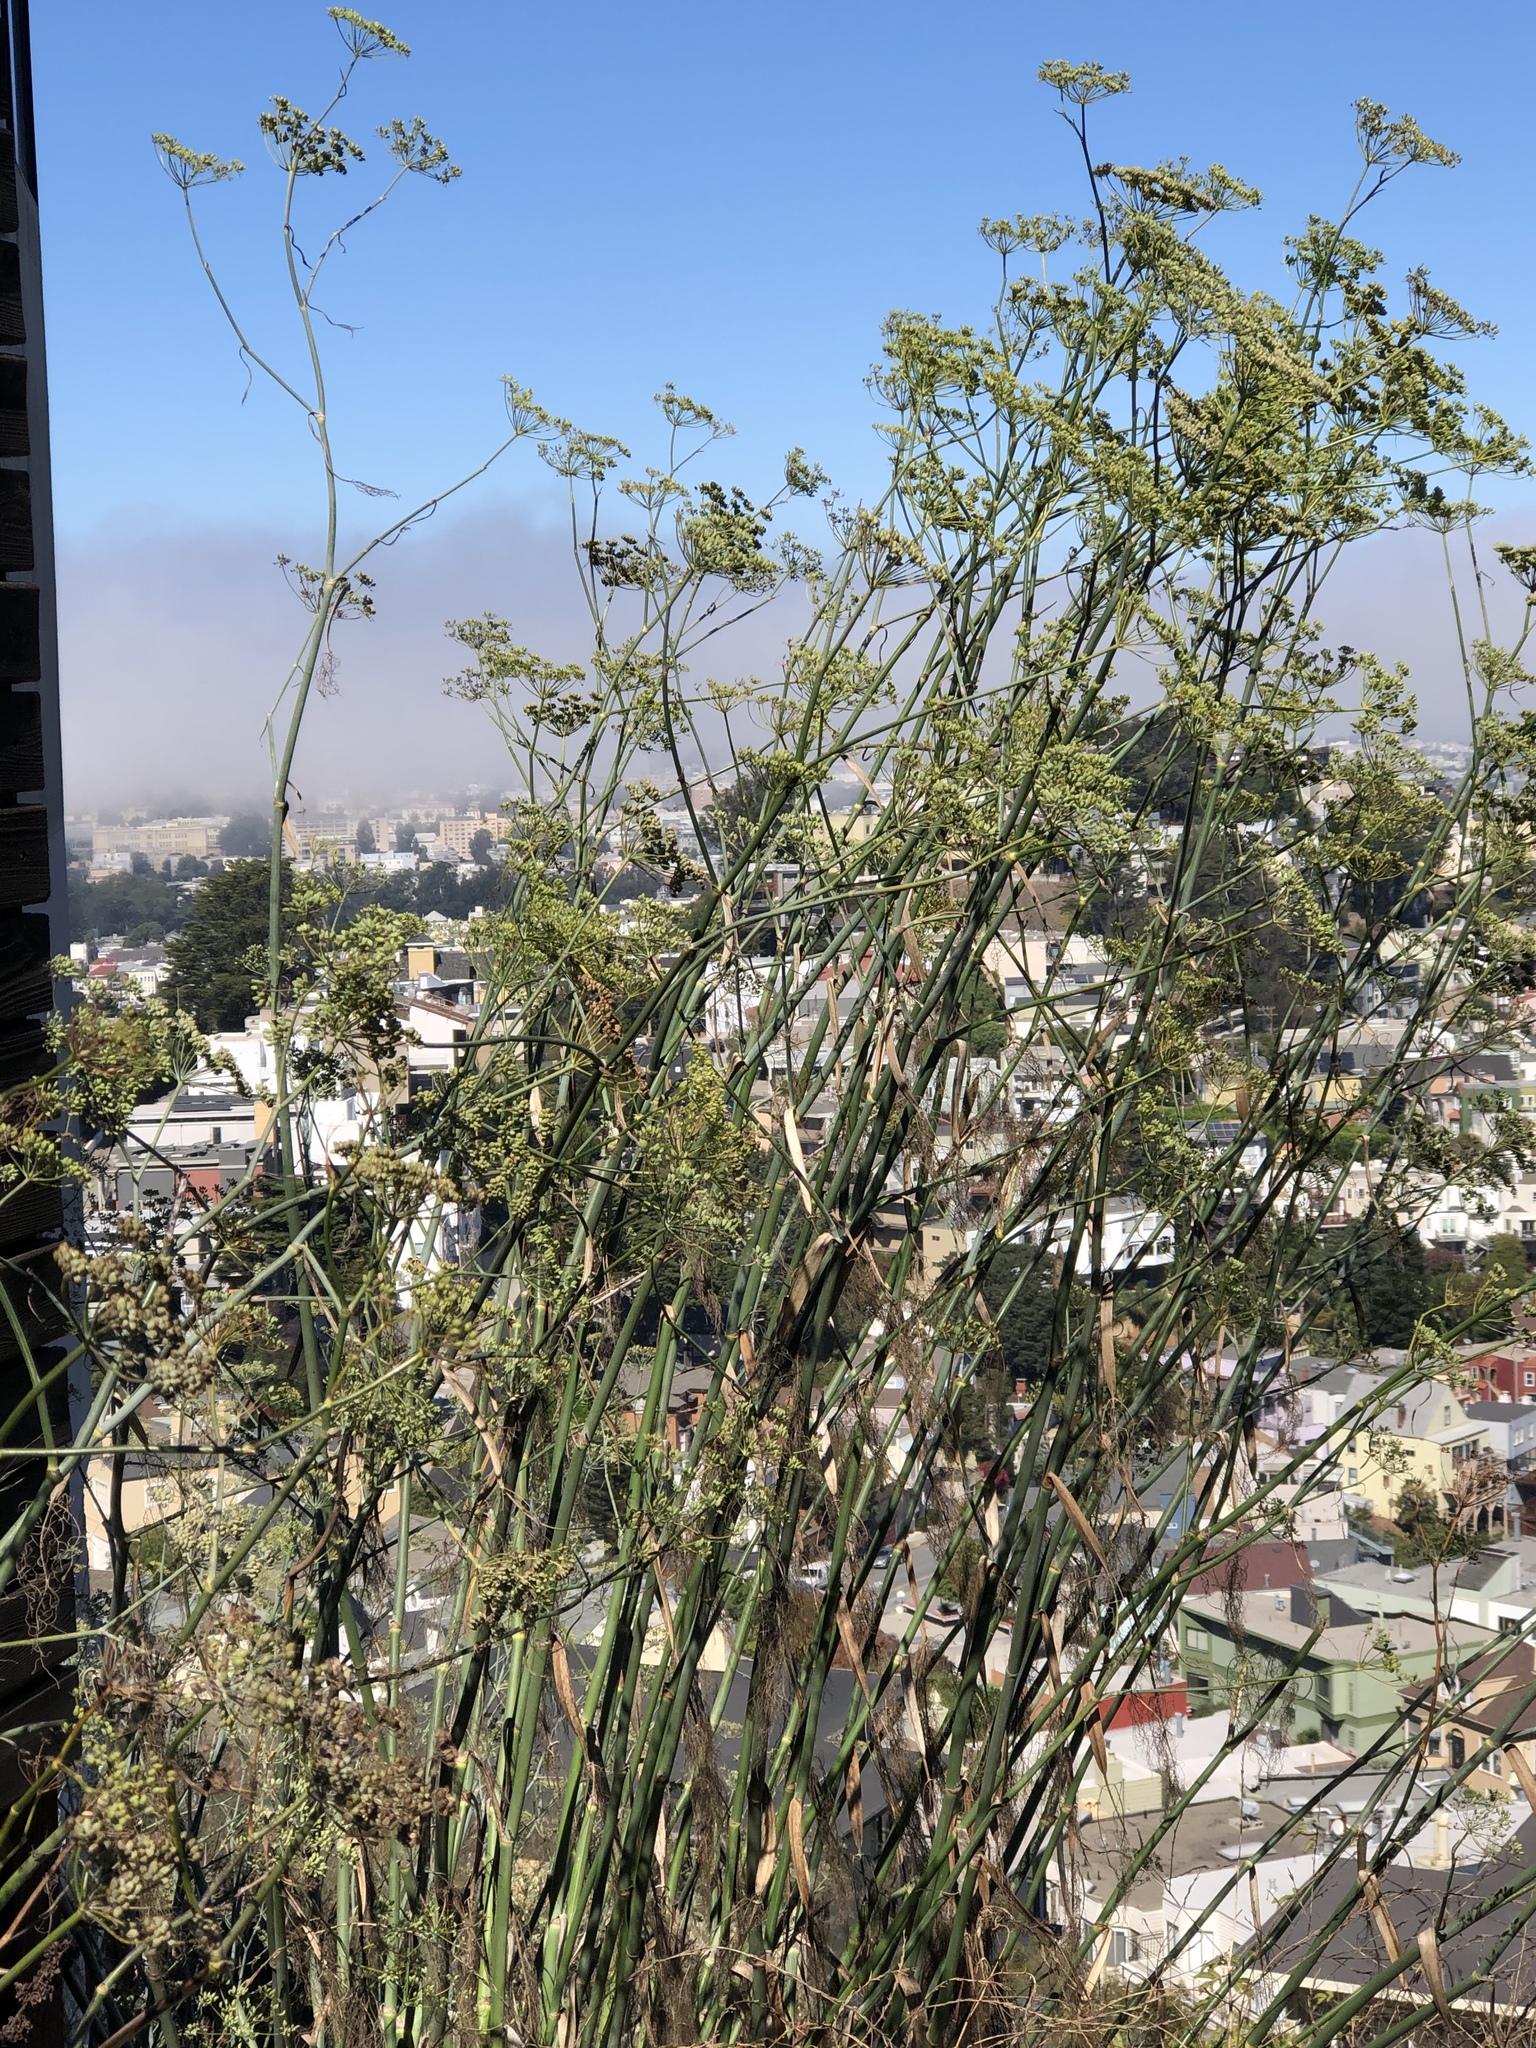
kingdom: Plantae
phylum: Tracheophyta
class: Magnoliopsida
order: Apiales
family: Apiaceae
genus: Foeniculum
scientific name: Foeniculum vulgare
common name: Fennel
